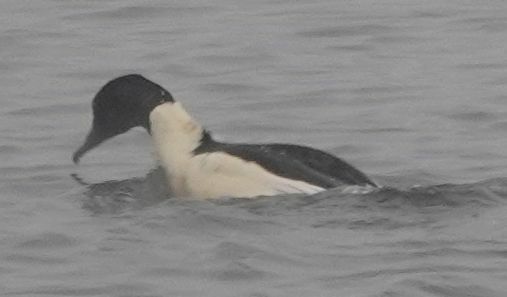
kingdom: Animalia
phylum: Chordata
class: Aves
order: Anseriformes
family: Anatidae
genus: Mergus
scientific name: Mergus merganser
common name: Common merganser
